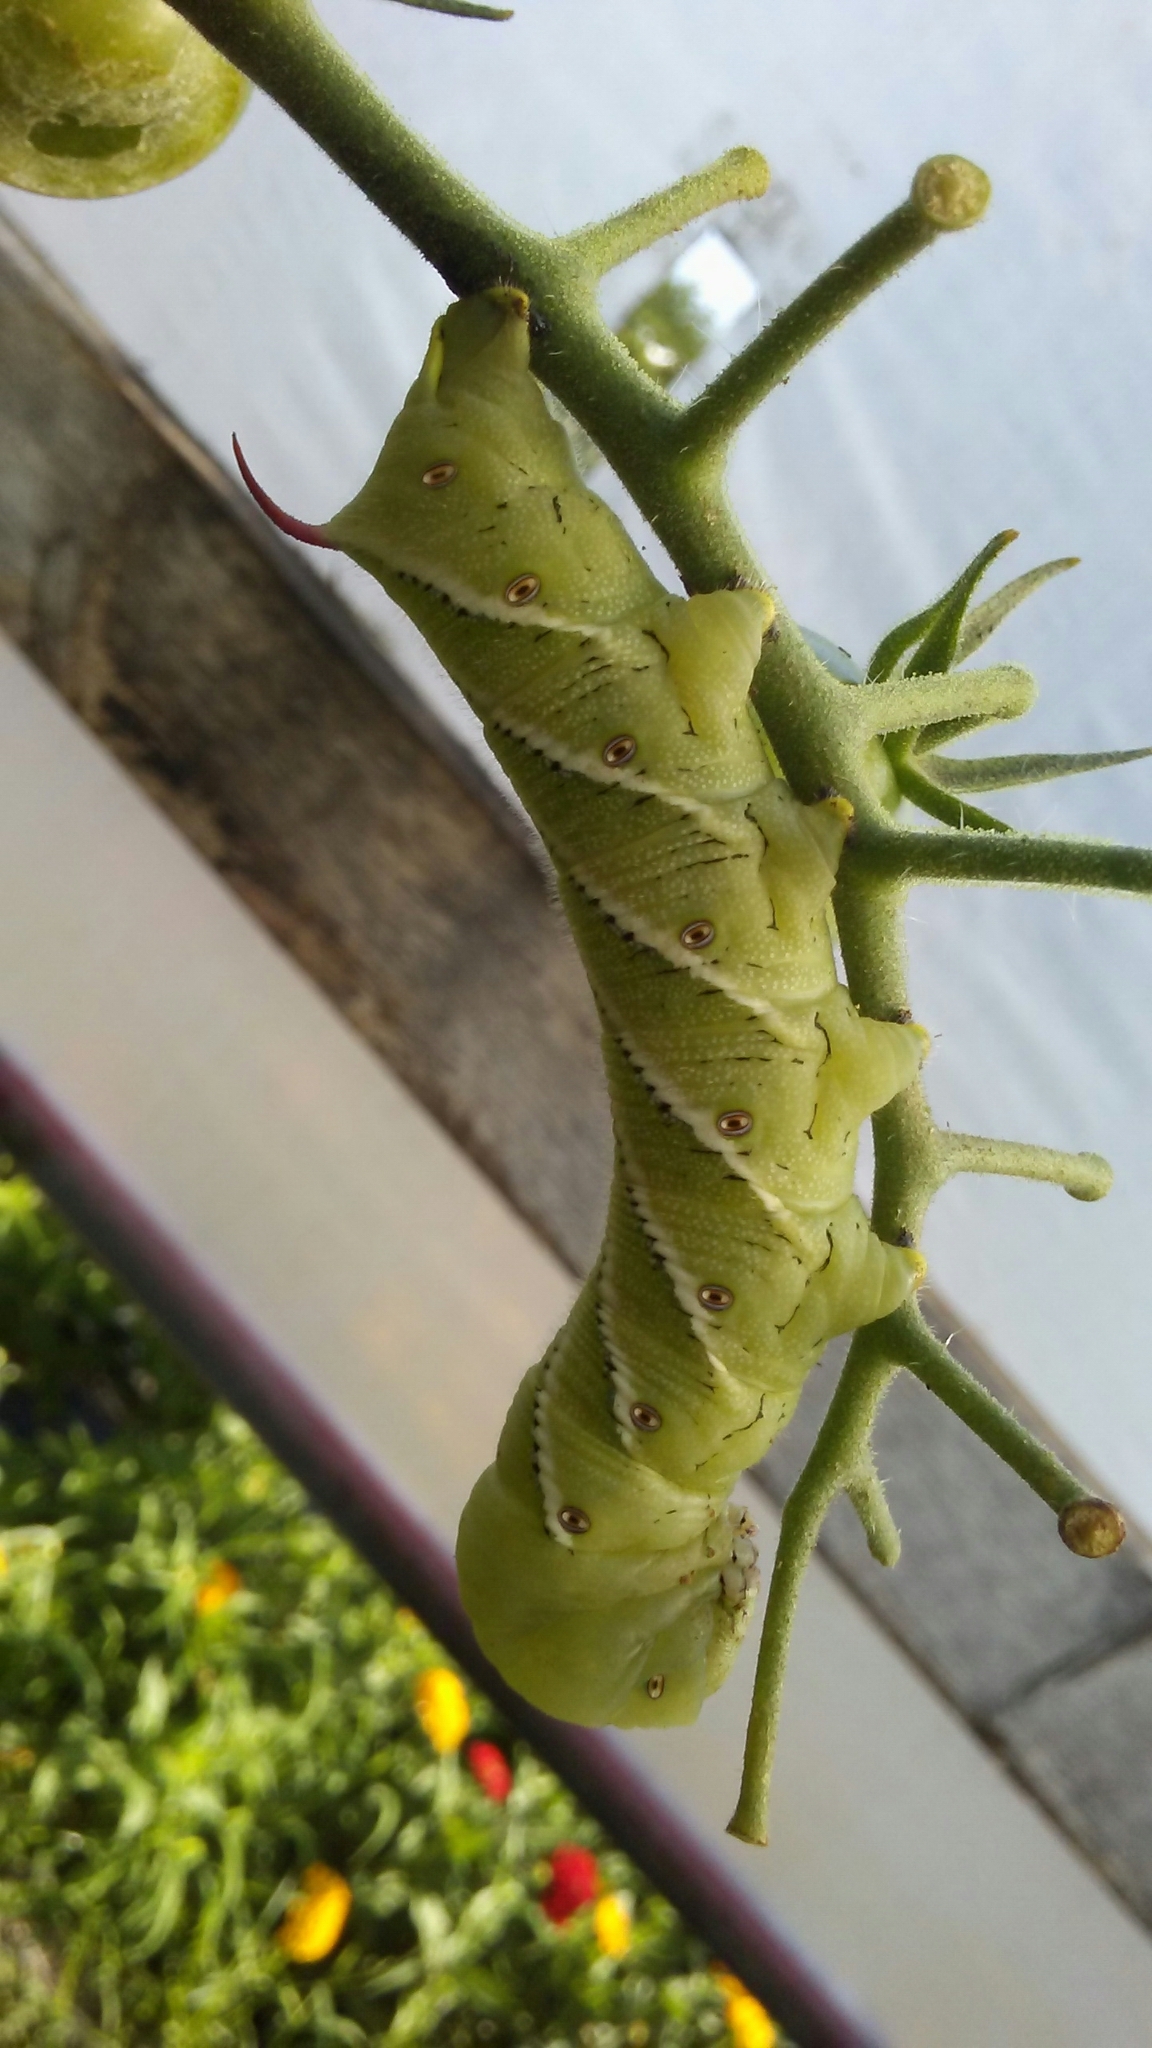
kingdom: Animalia
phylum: Arthropoda
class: Insecta
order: Lepidoptera
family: Sphingidae
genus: Manduca
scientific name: Manduca sexta
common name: Carolina sphinx
